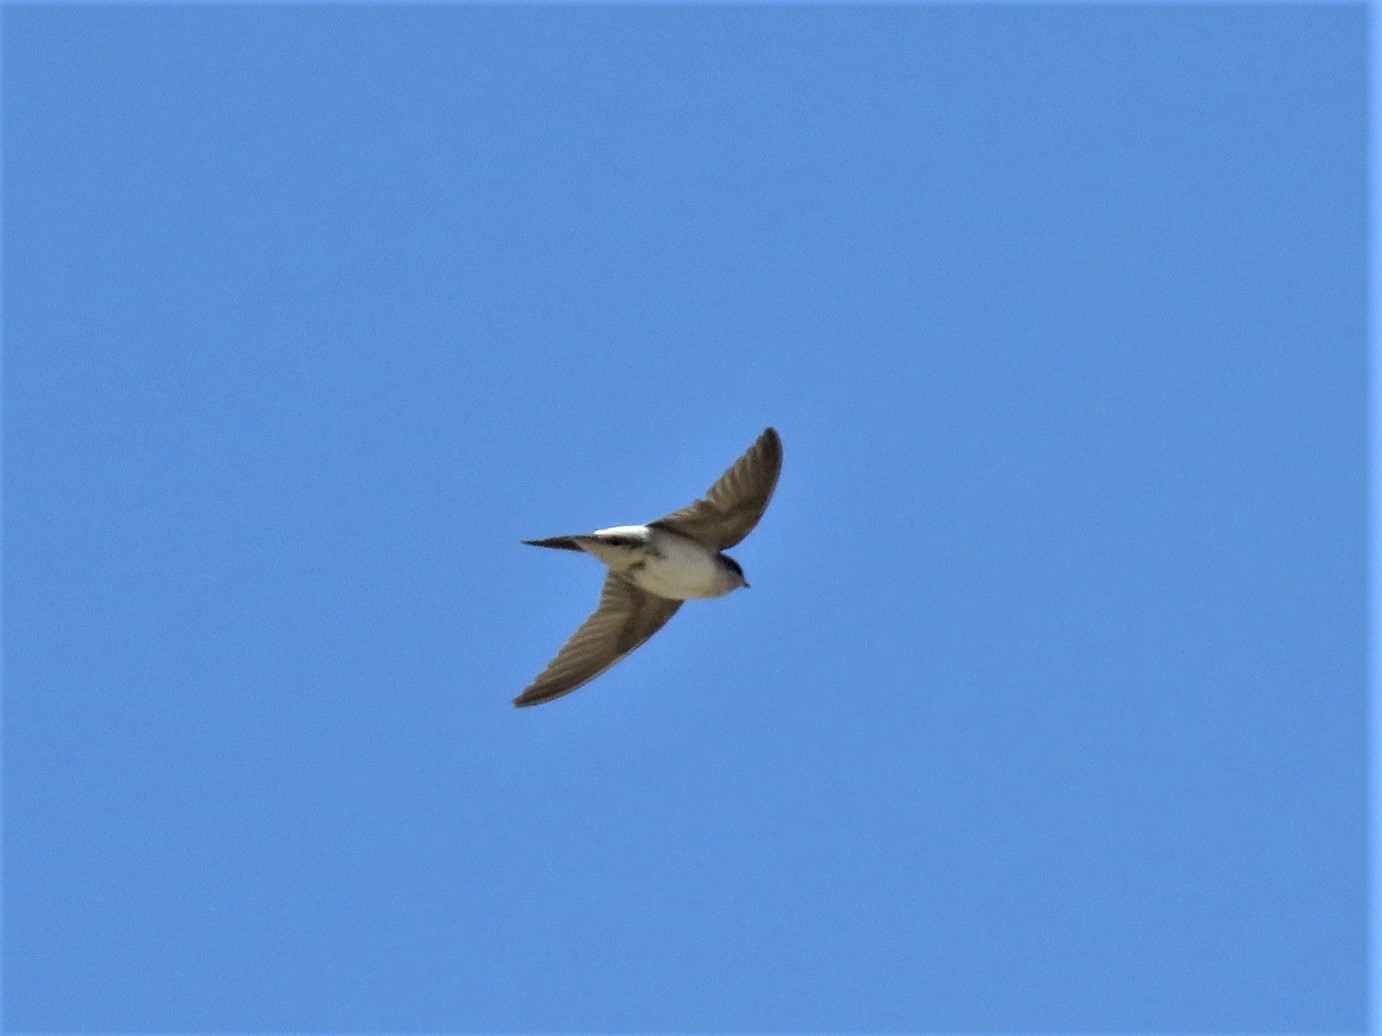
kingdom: Animalia
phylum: Chordata
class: Aves
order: Passeriformes
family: Hirundinidae
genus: Delichon
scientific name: Delichon urbicum
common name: Common house martin
